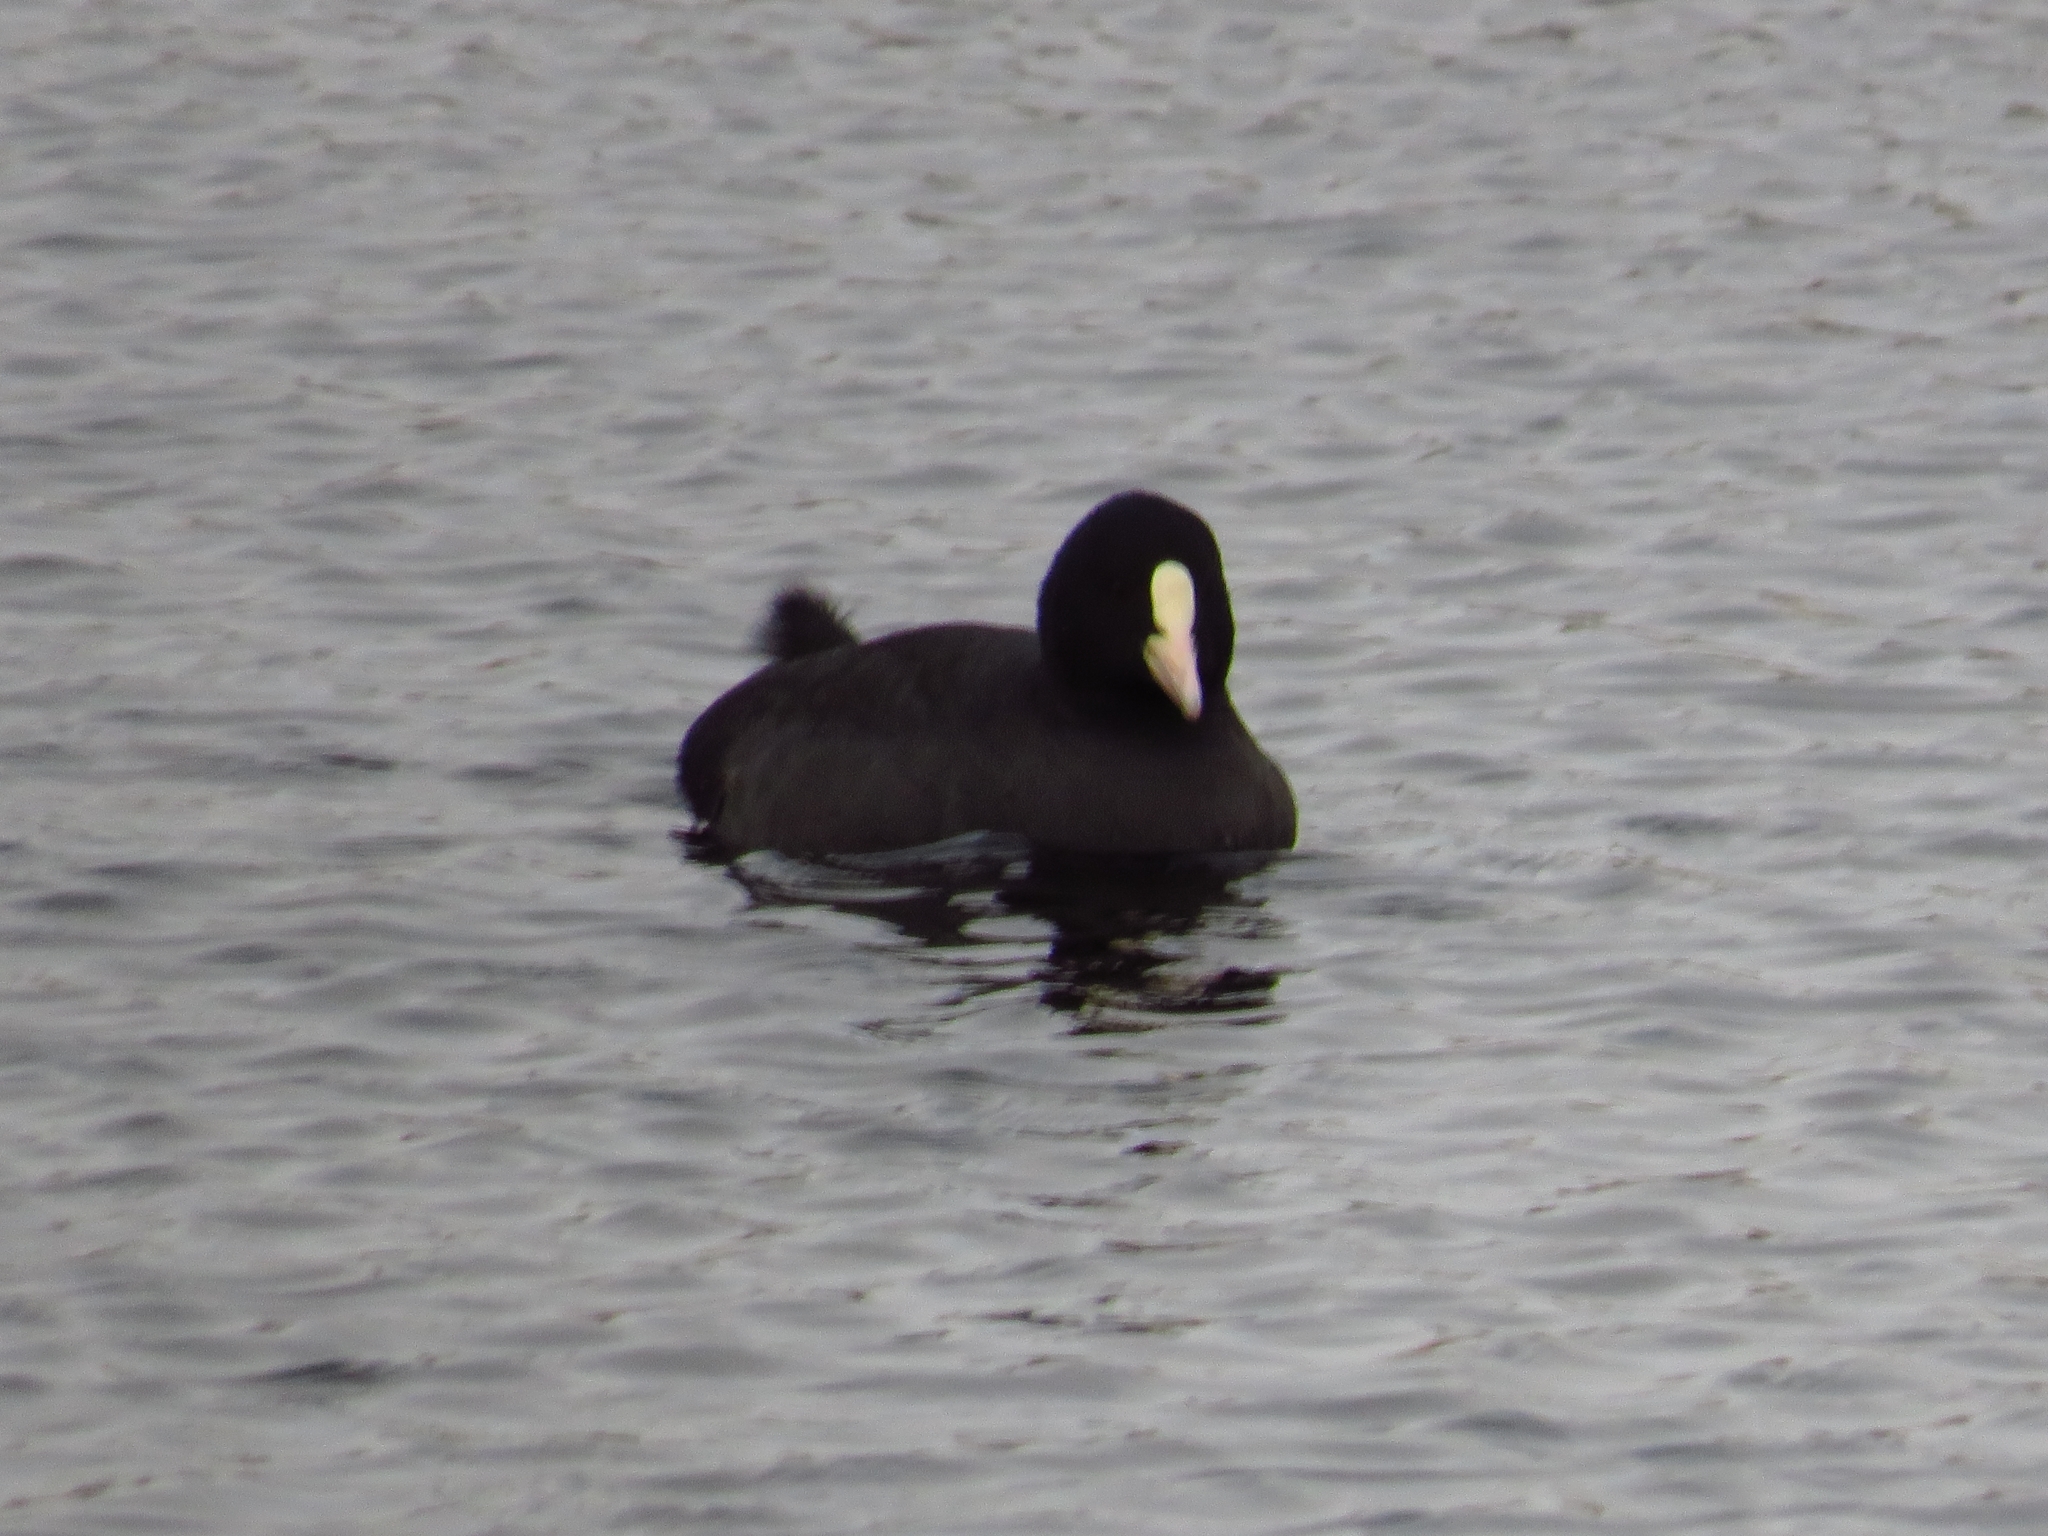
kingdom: Animalia
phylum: Chordata
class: Aves
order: Gruiformes
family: Rallidae
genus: Fulica
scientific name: Fulica atra
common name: Eurasian coot
